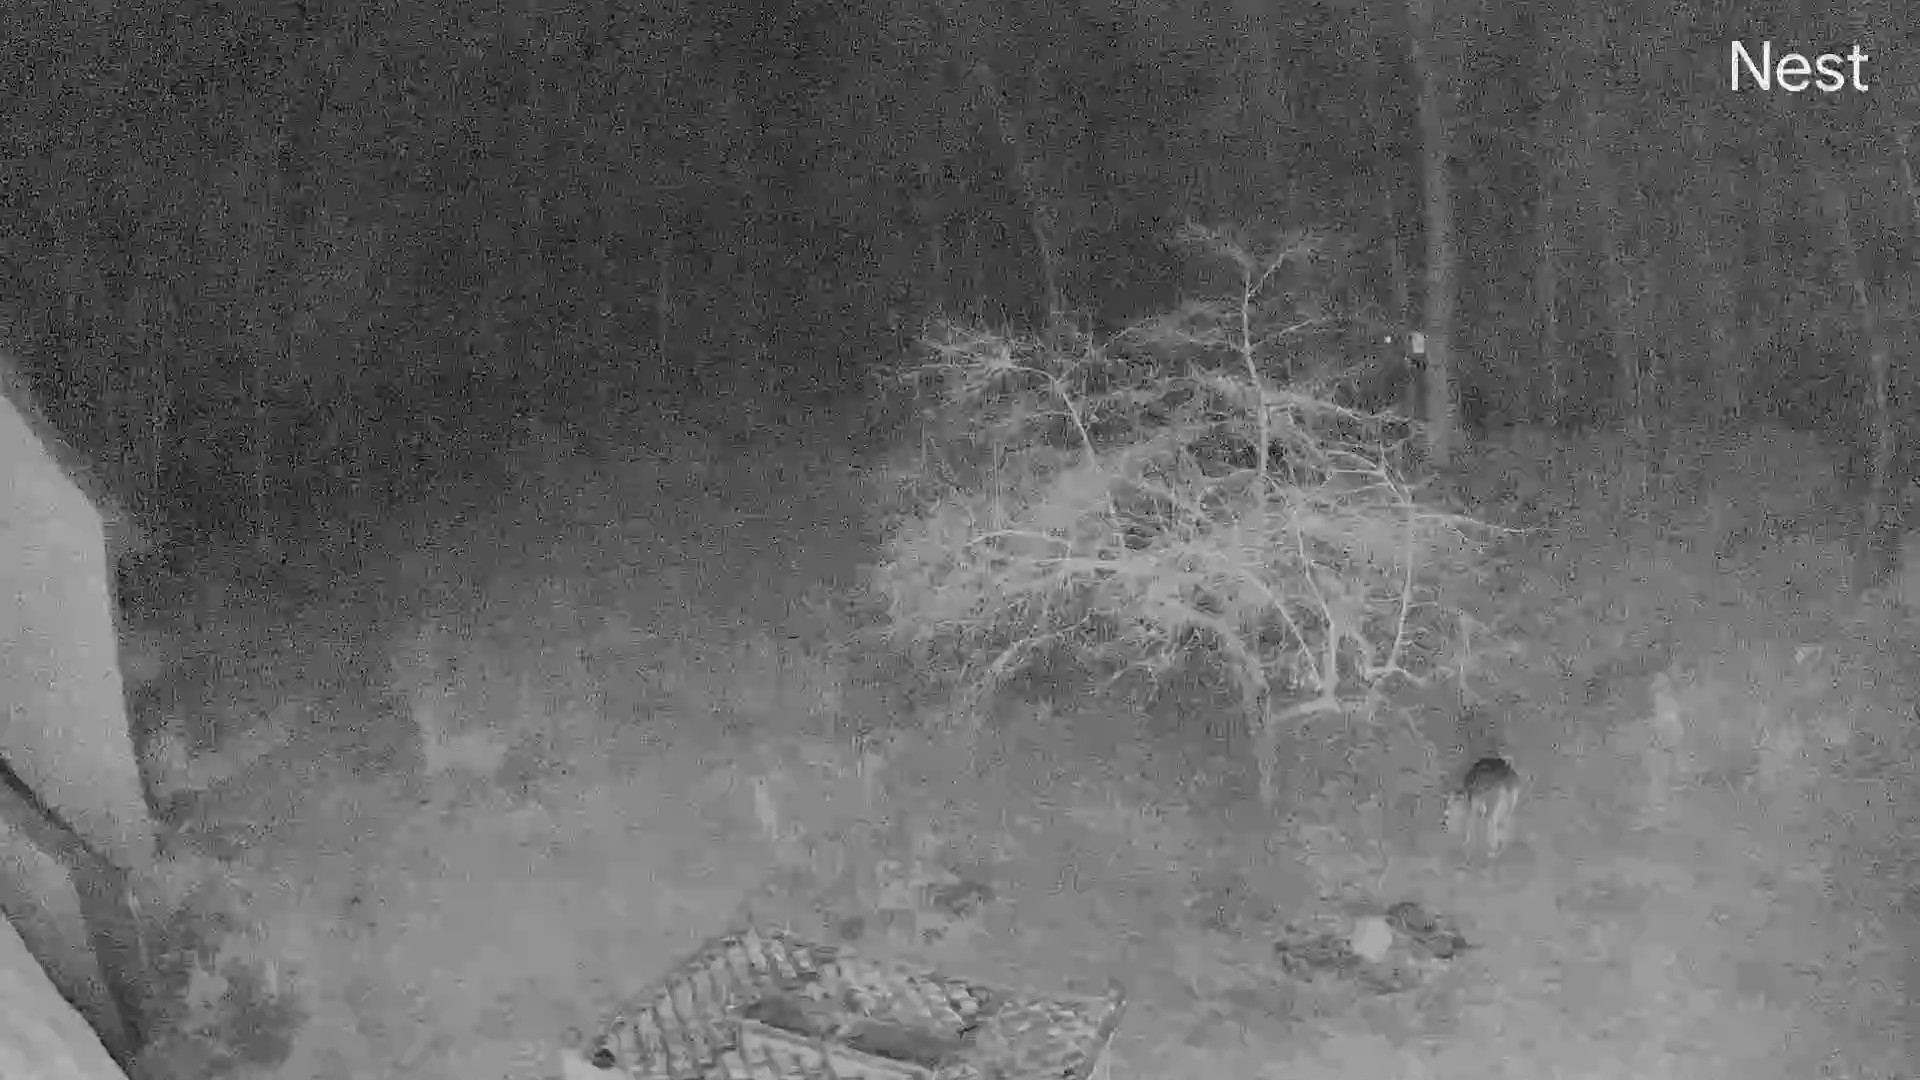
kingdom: Animalia
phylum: Chordata
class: Mammalia
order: Artiodactyla
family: Cervidae
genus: Odocoileus
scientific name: Odocoileus virginianus
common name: White-tailed deer
